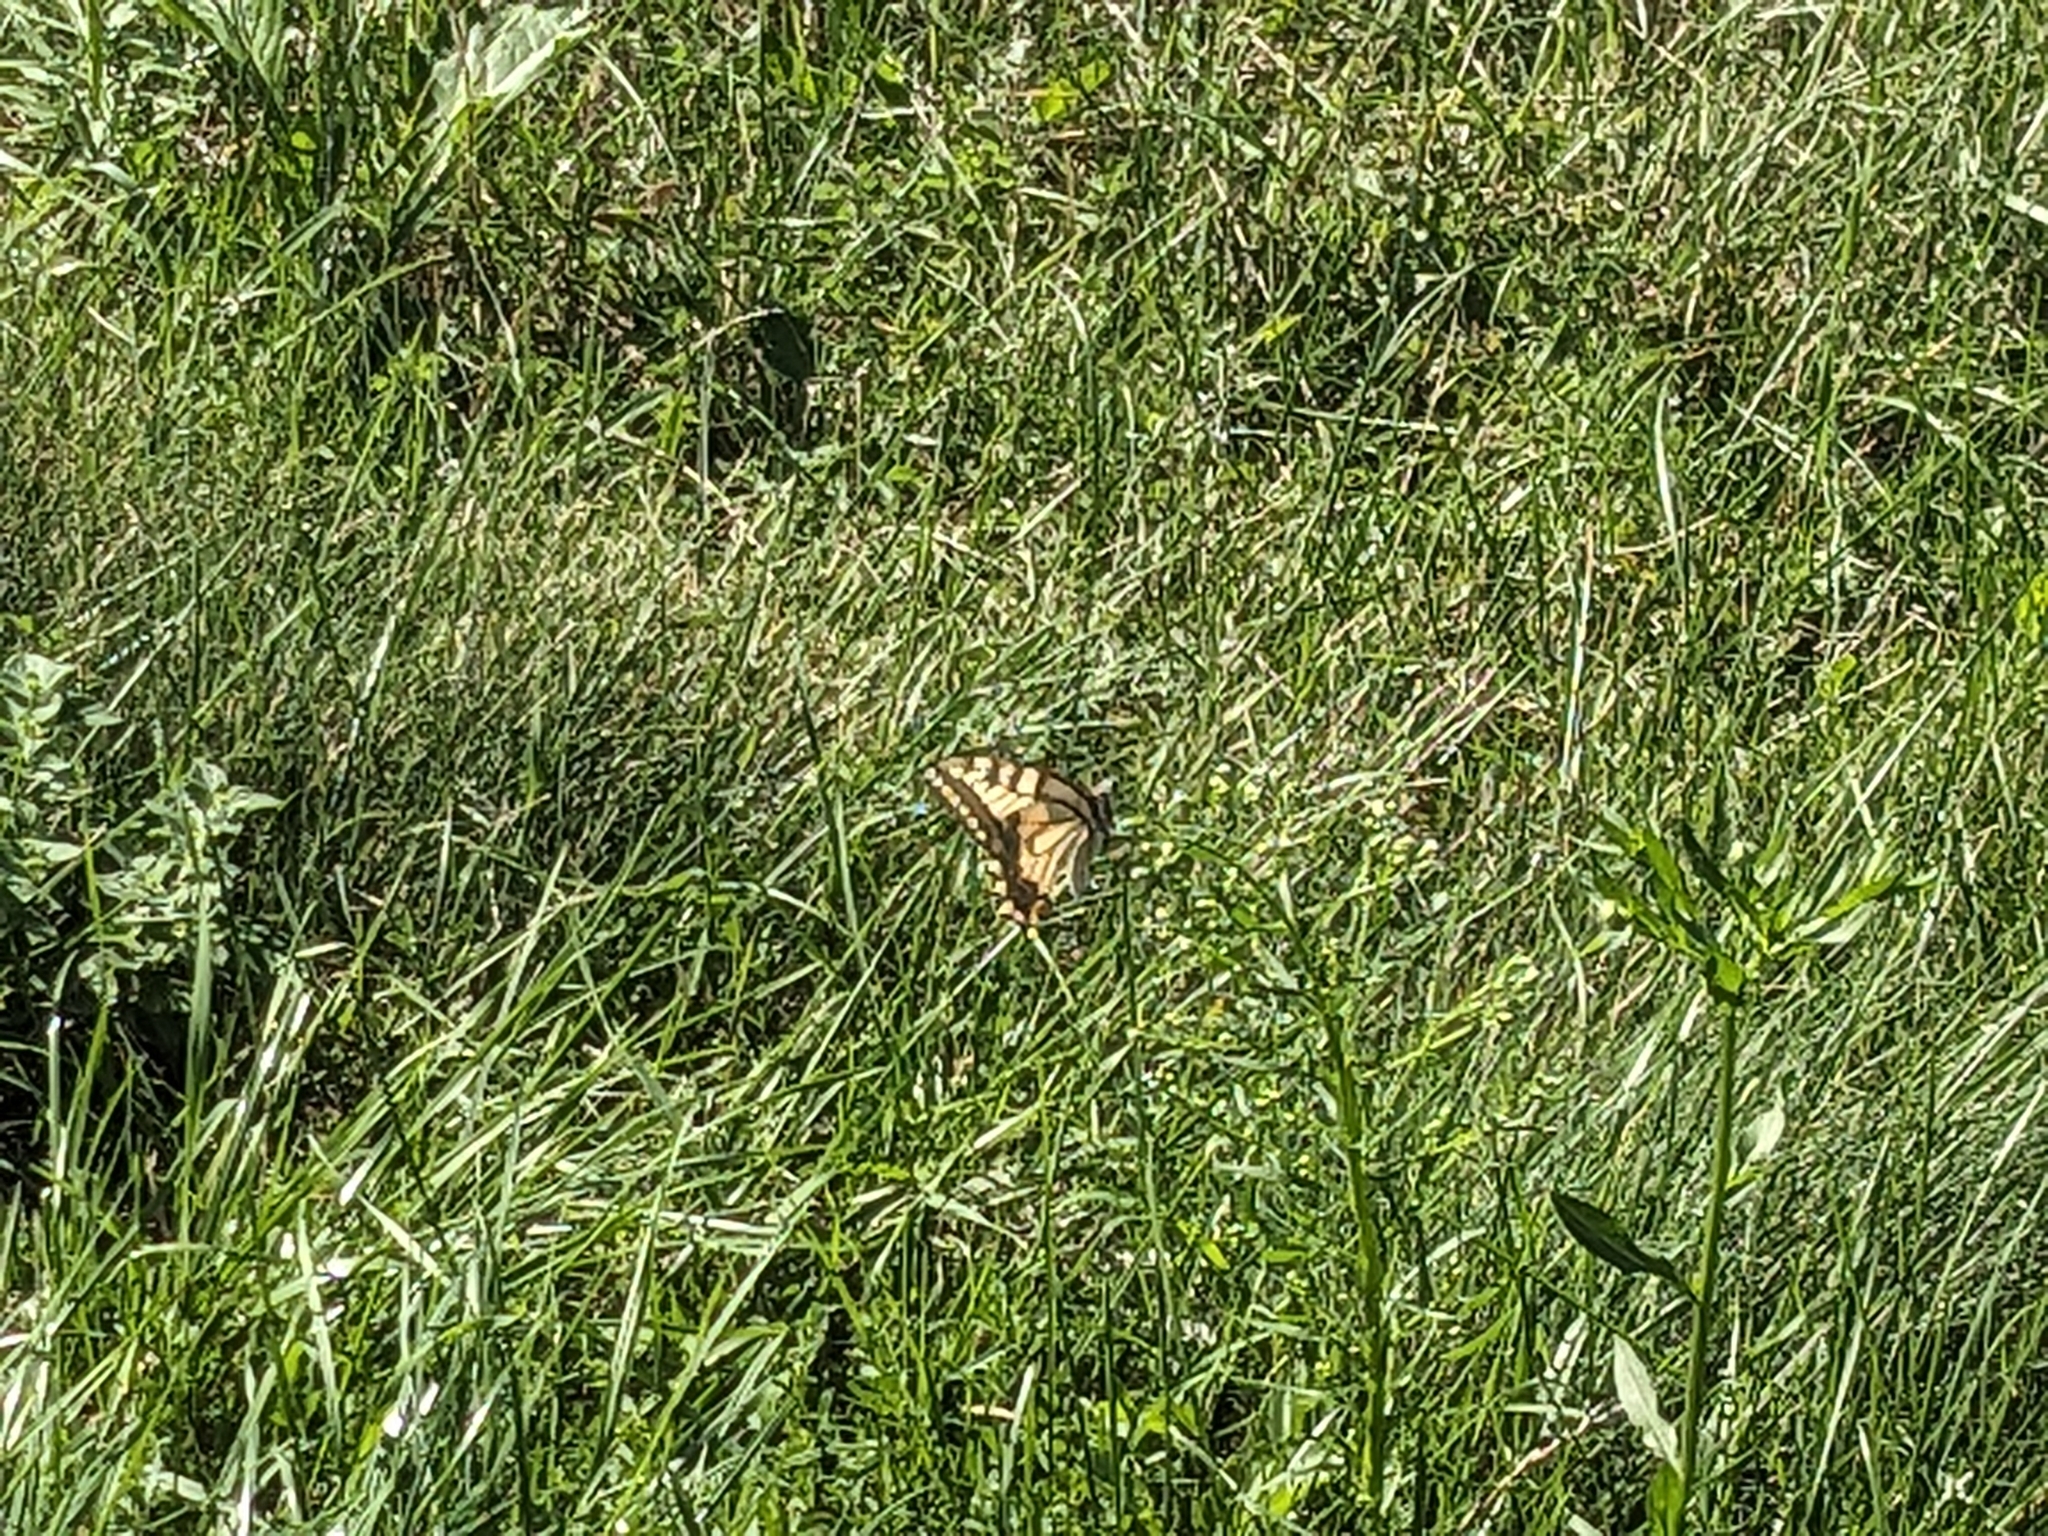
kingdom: Animalia
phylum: Arthropoda
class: Insecta
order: Lepidoptera
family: Papilionidae
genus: Papilio
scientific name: Papilio machaon
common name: Swallowtail
